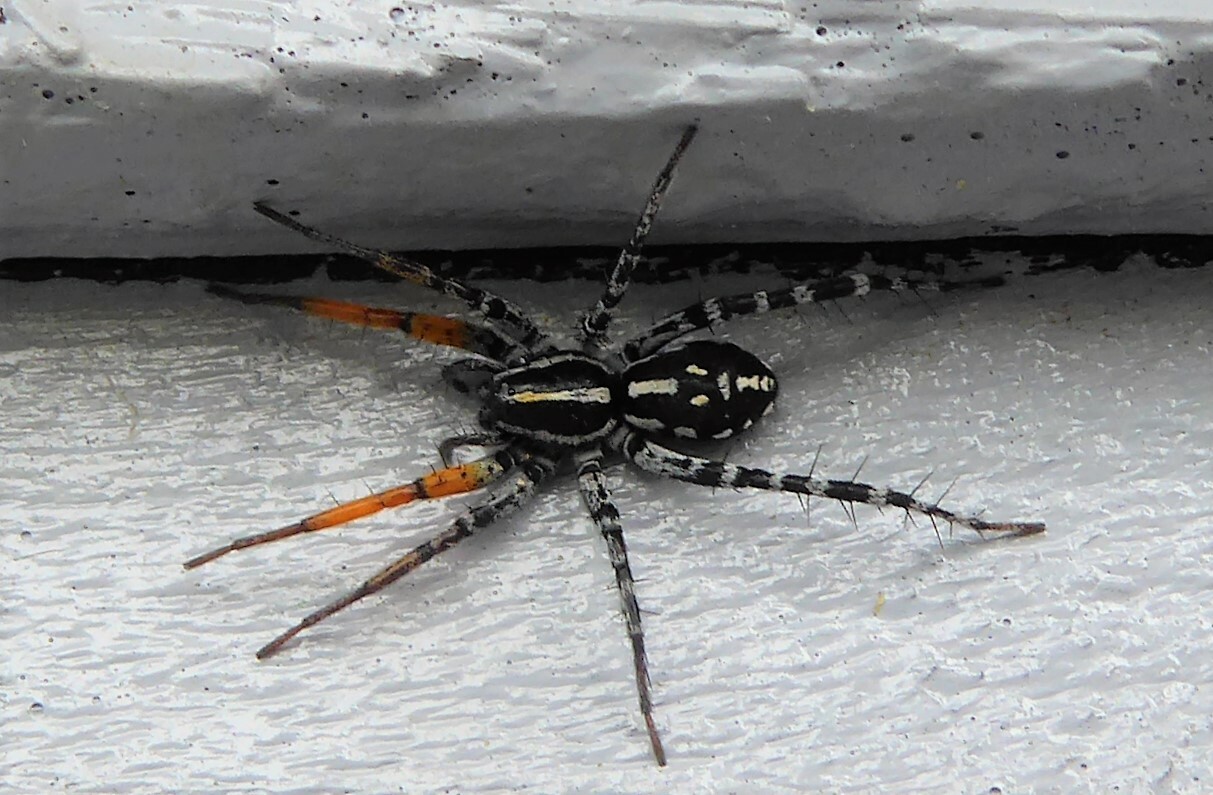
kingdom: Animalia
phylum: Arthropoda
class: Arachnida
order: Araneae
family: Corinnidae
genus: Nyssus
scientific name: Nyssus coloripes
